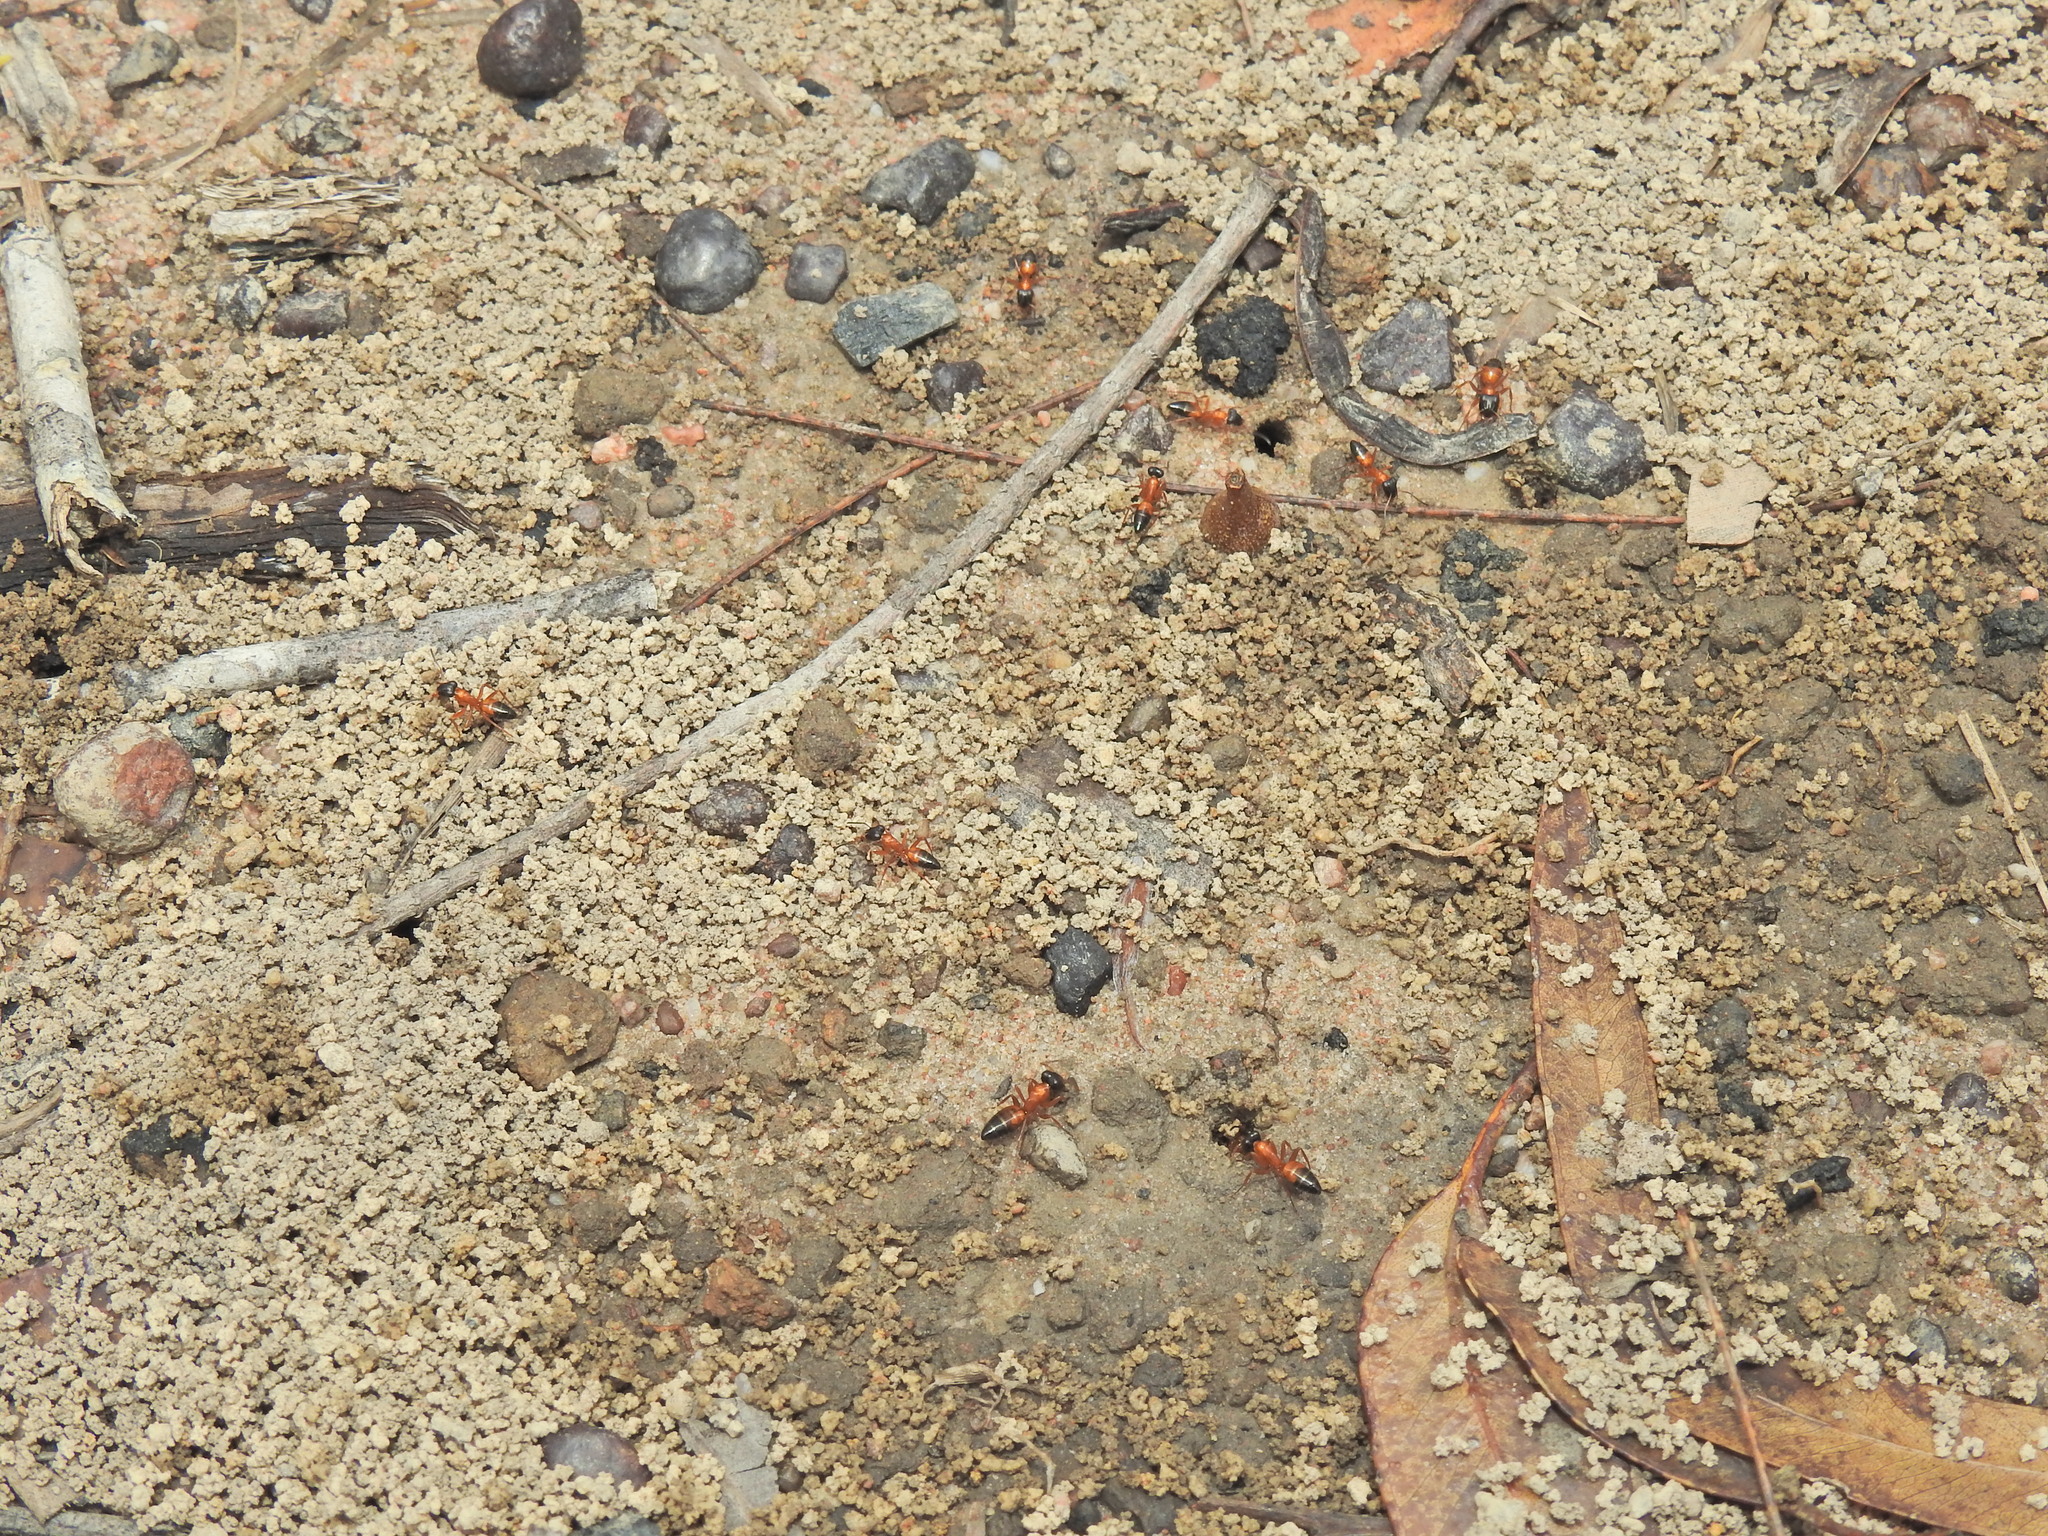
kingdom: Animalia
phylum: Arthropoda
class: Insecta
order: Hymenoptera
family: Formicidae
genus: Opisthopsis
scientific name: Opisthopsis rufithorax
